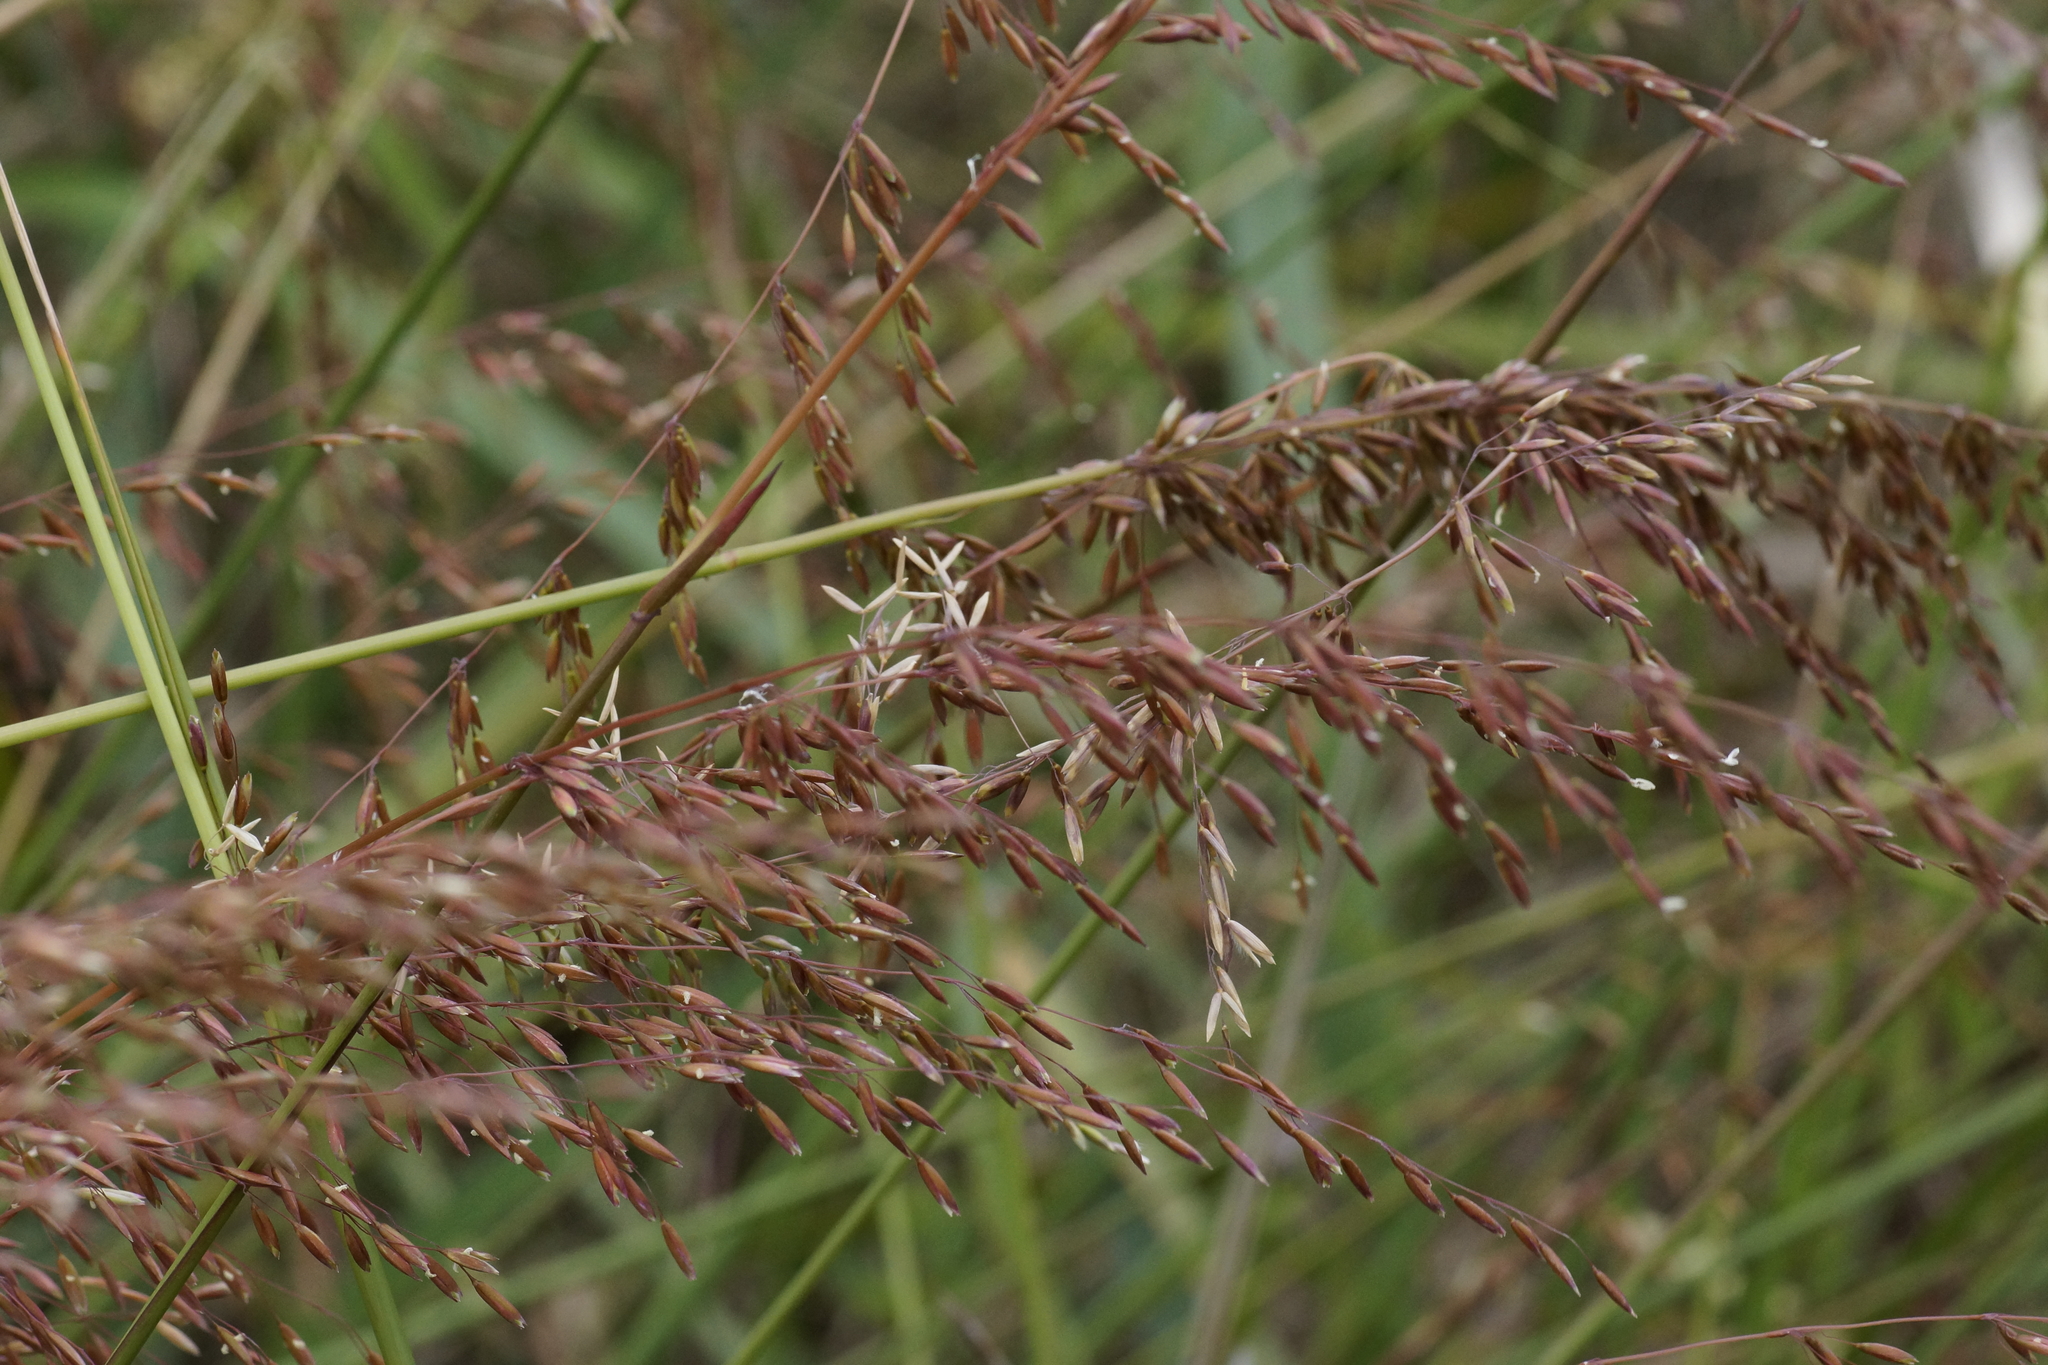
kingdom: Plantae
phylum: Tracheophyta
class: Liliopsida
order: Poales
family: Poaceae
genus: Ehrharta
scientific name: Ehrharta calycina
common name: Perennial veldtgrass
